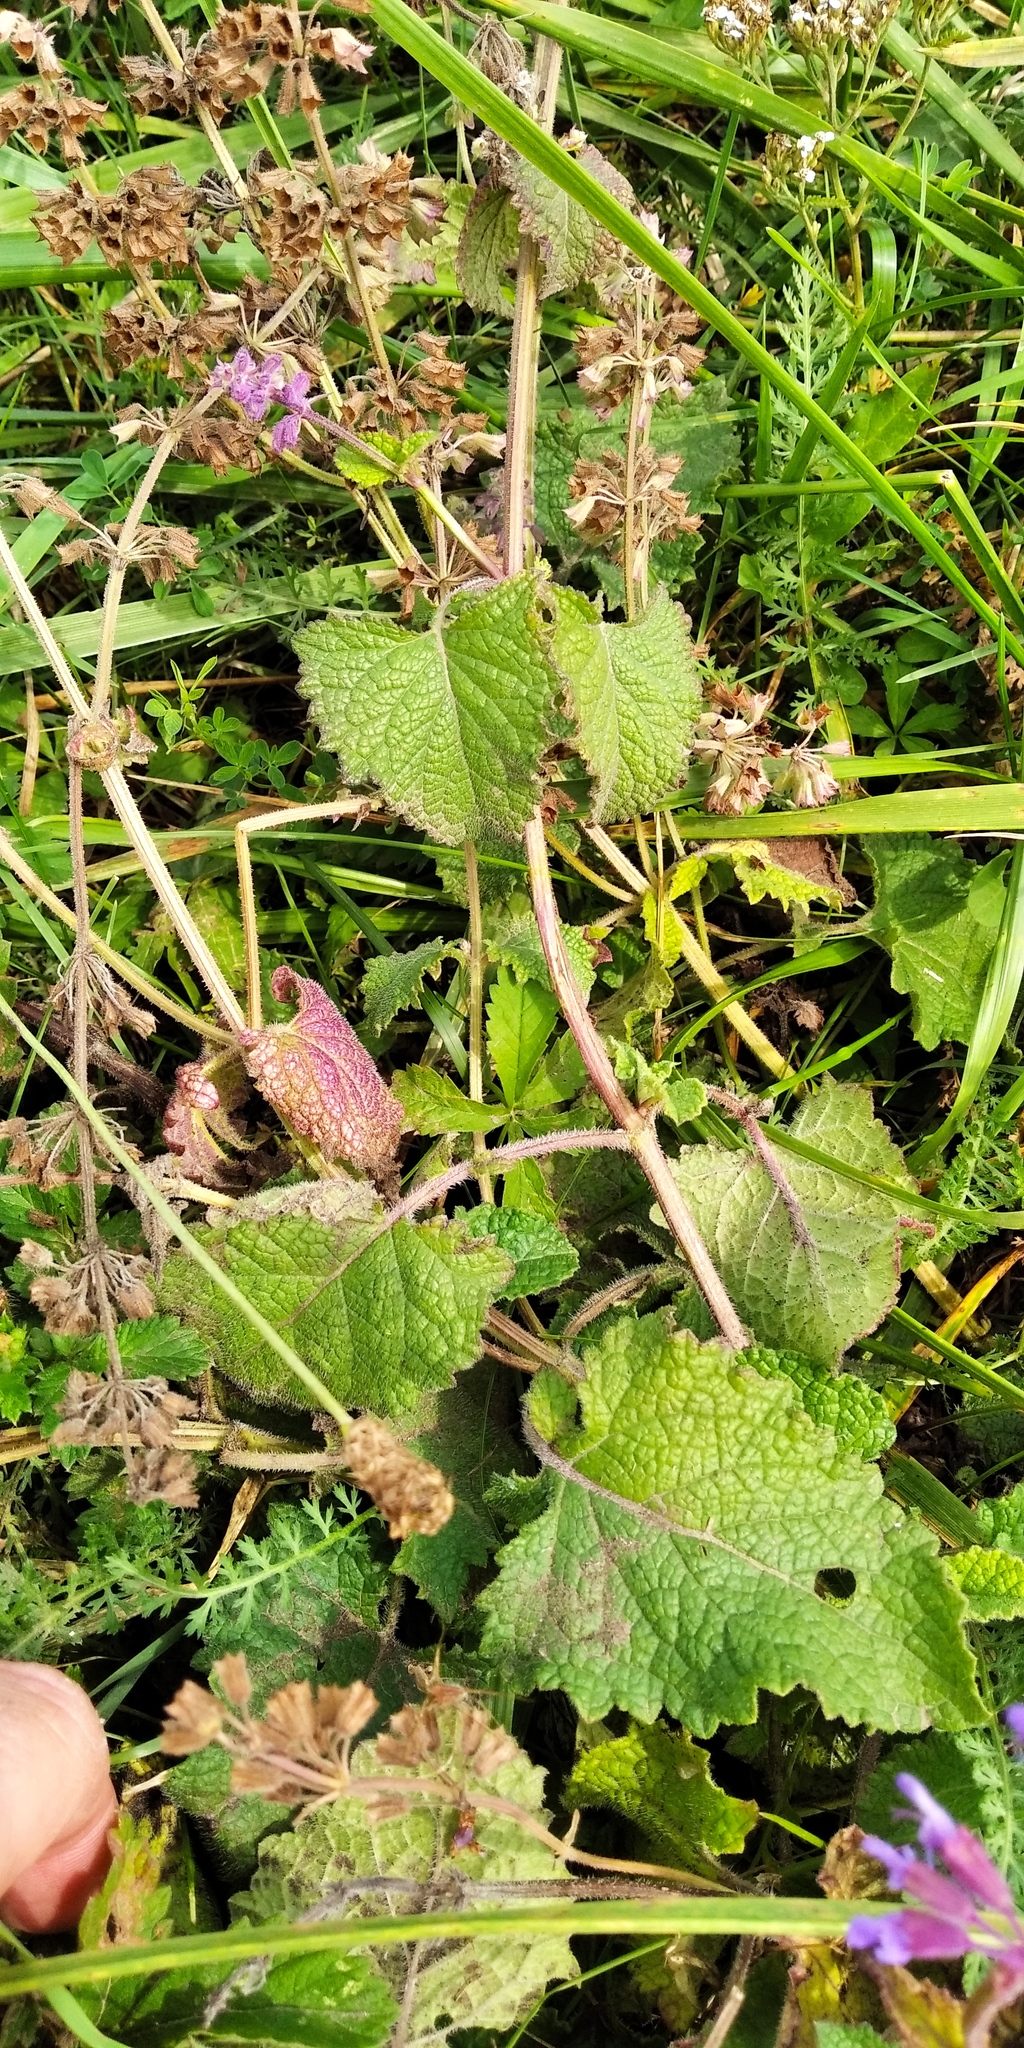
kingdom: Plantae
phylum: Tracheophyta
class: Magnoliopsida
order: Lamiales
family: Lamiaceae
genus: Salvia
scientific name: Salvia verticillata
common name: Whorled clary
